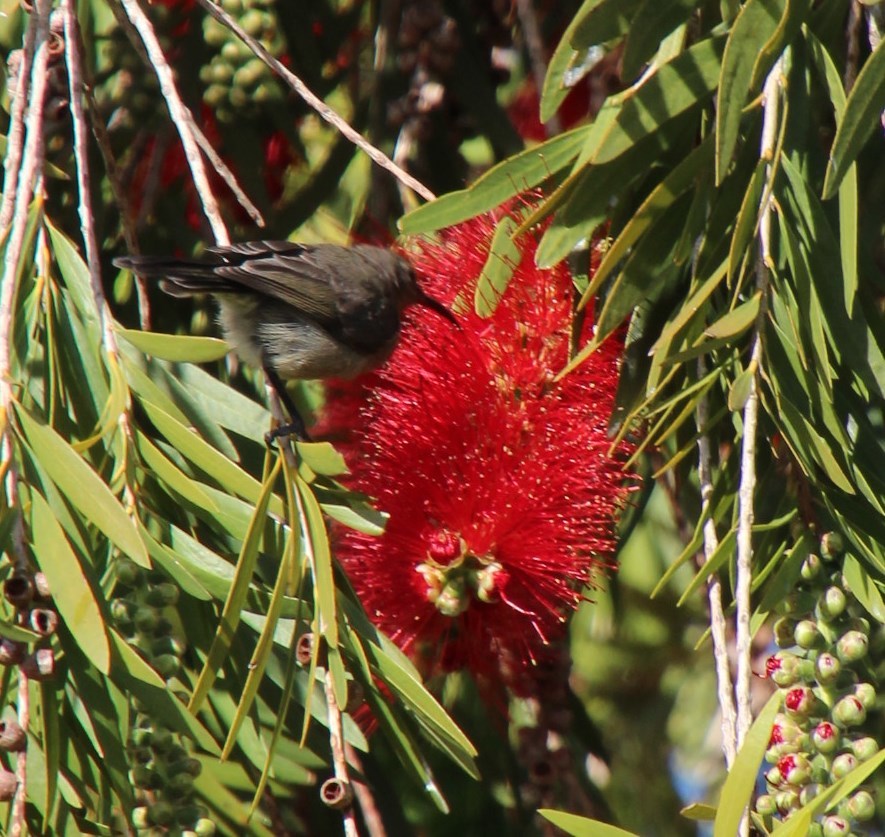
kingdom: Animalia
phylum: Chordata
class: Aves
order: Passeriformes
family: Nectariniidae
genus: Cinnyris
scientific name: Cinnyris chalybeus
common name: Southern double-collared sunbird
